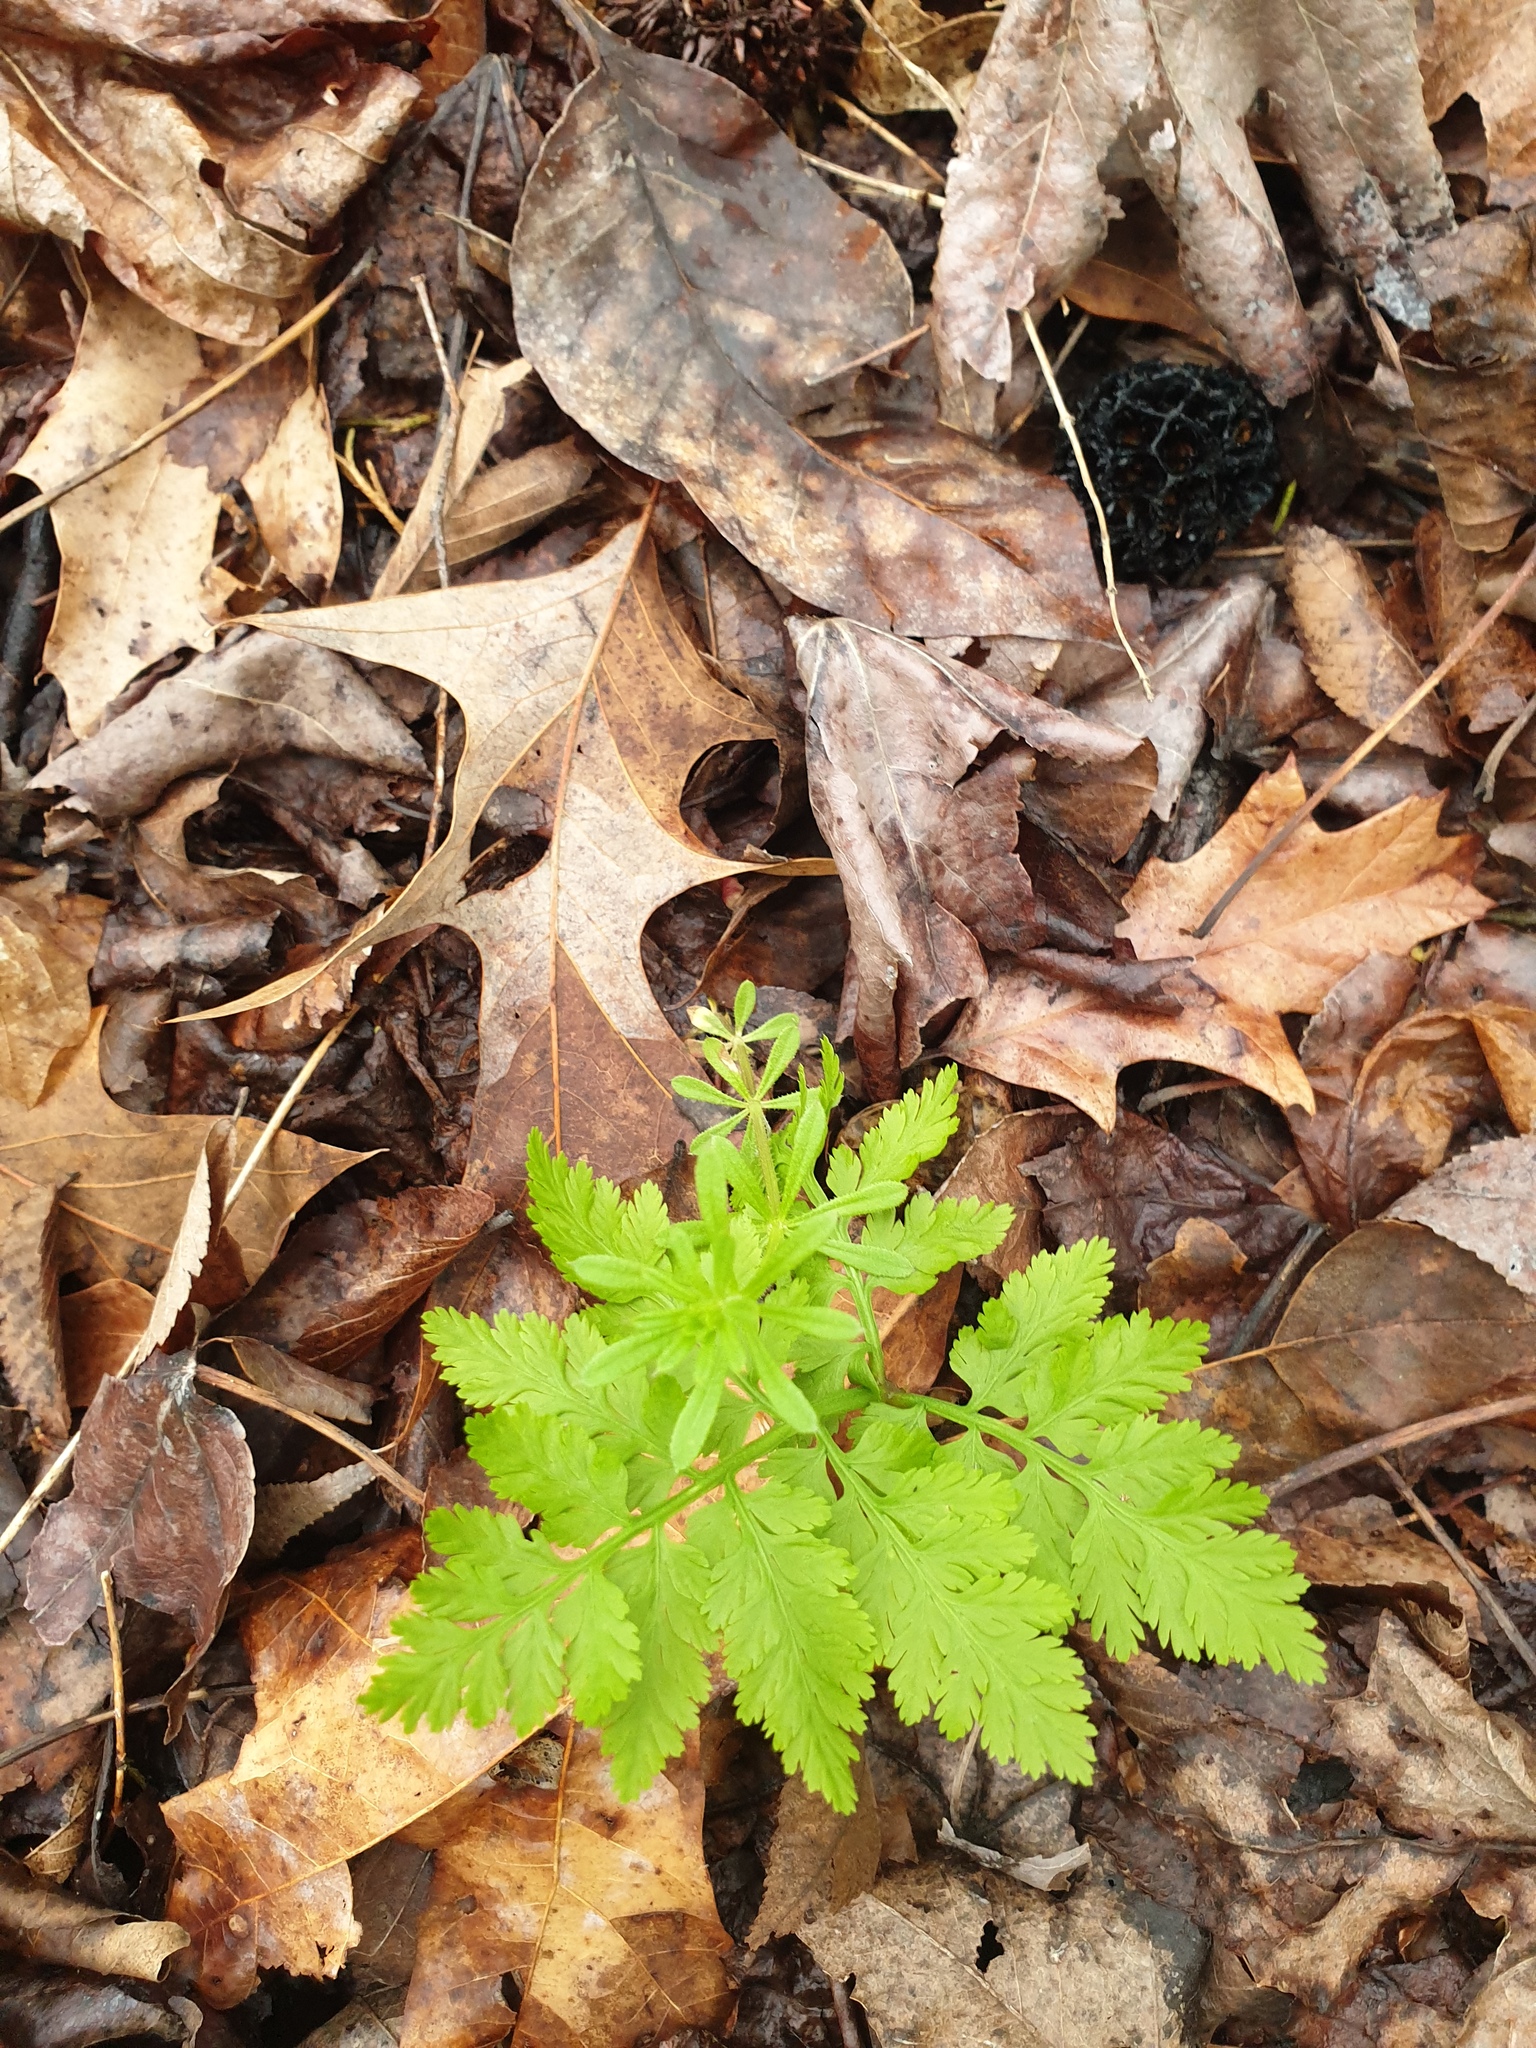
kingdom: Plantae
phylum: Tracheophyta
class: Polypodiopsida
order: Ophioglossales
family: Ophioglossaceae
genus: Botrypus
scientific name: Botrypus virginianus
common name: Common grapefern
